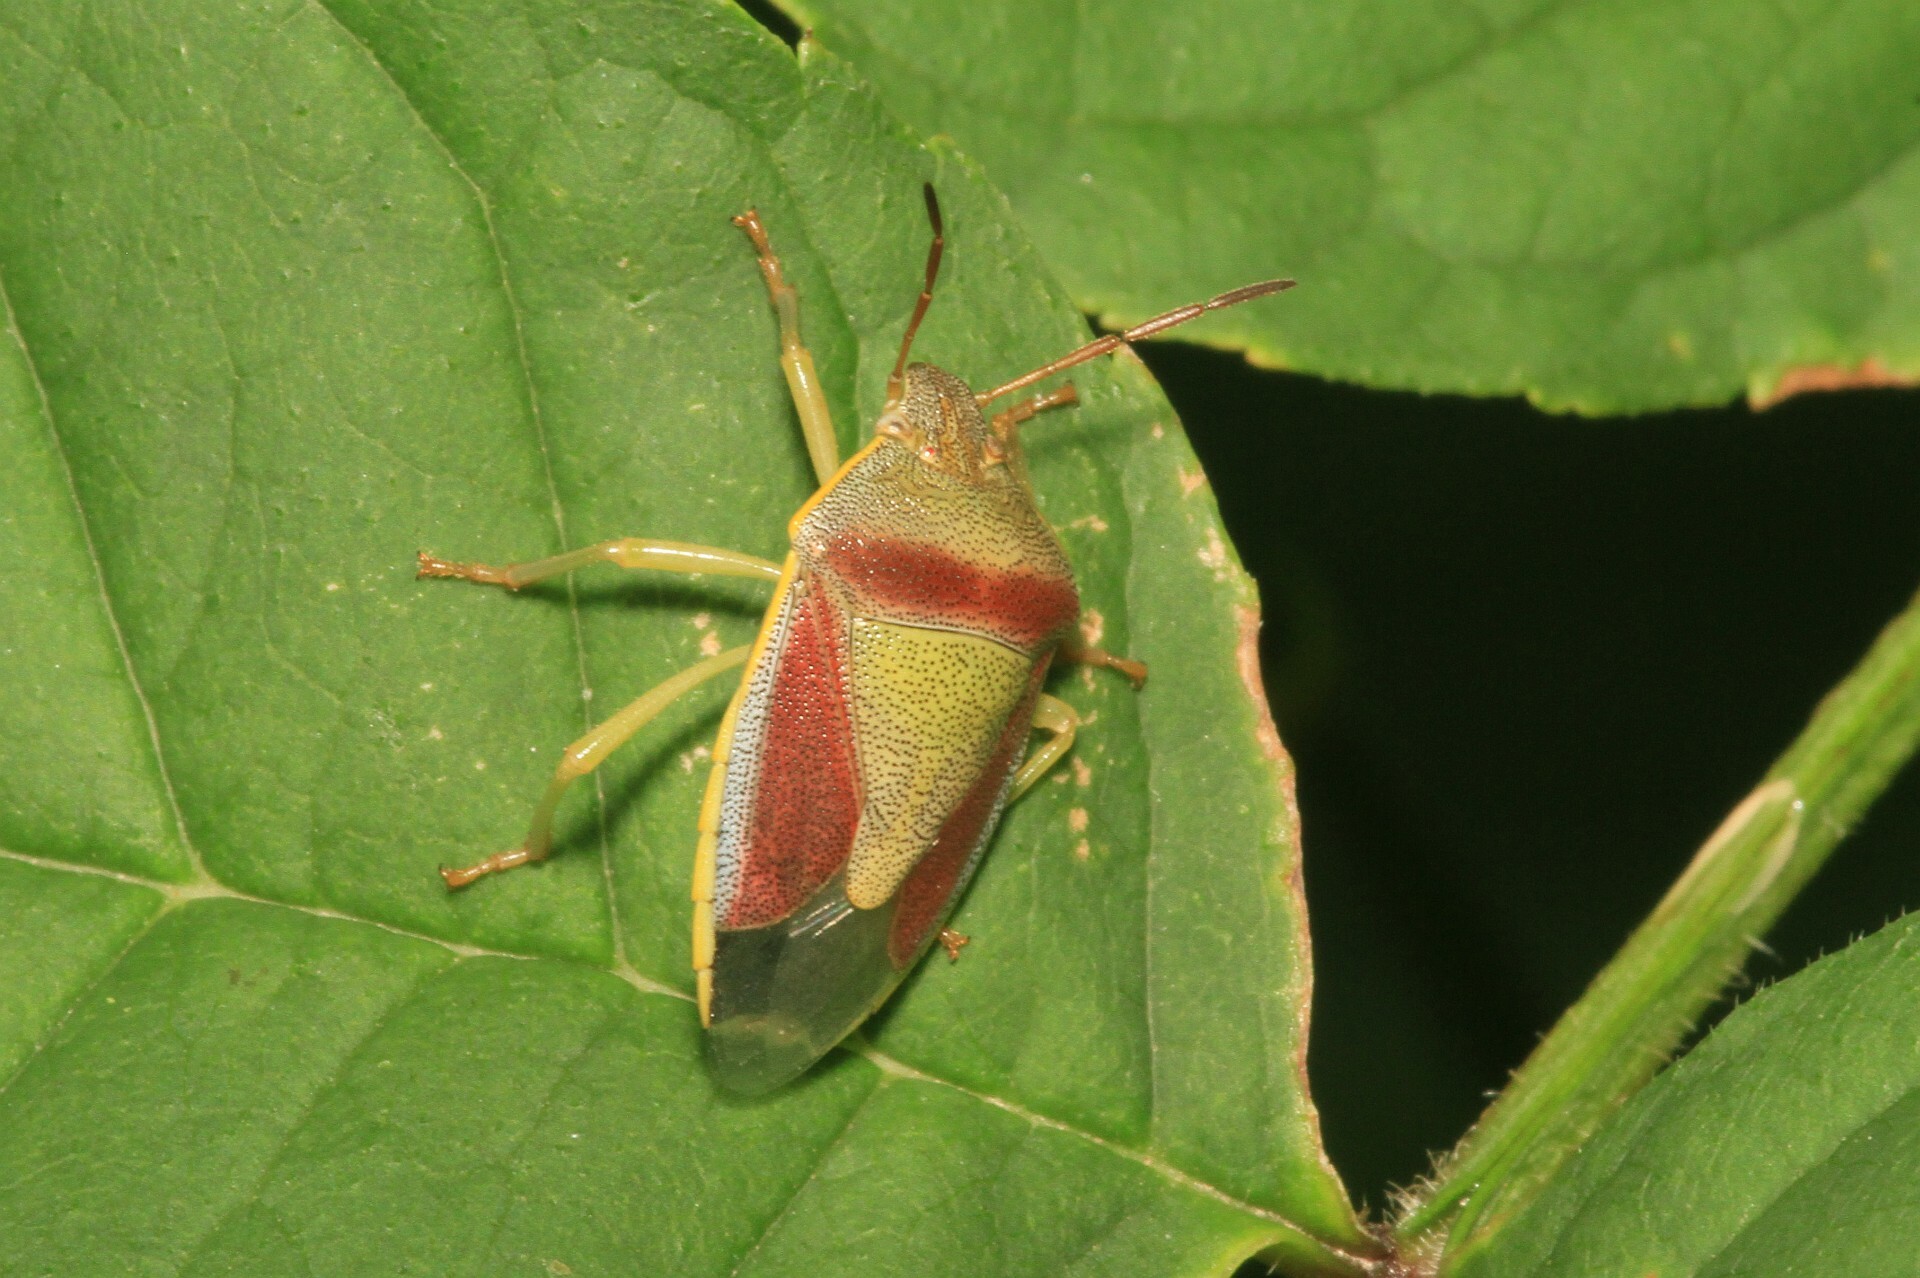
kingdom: Animalia
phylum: Arthropoda
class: Insecta
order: Hemiptera
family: Pentatomidae
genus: Piezodorus
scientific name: Piezodorus lituratus
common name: Stink bug
